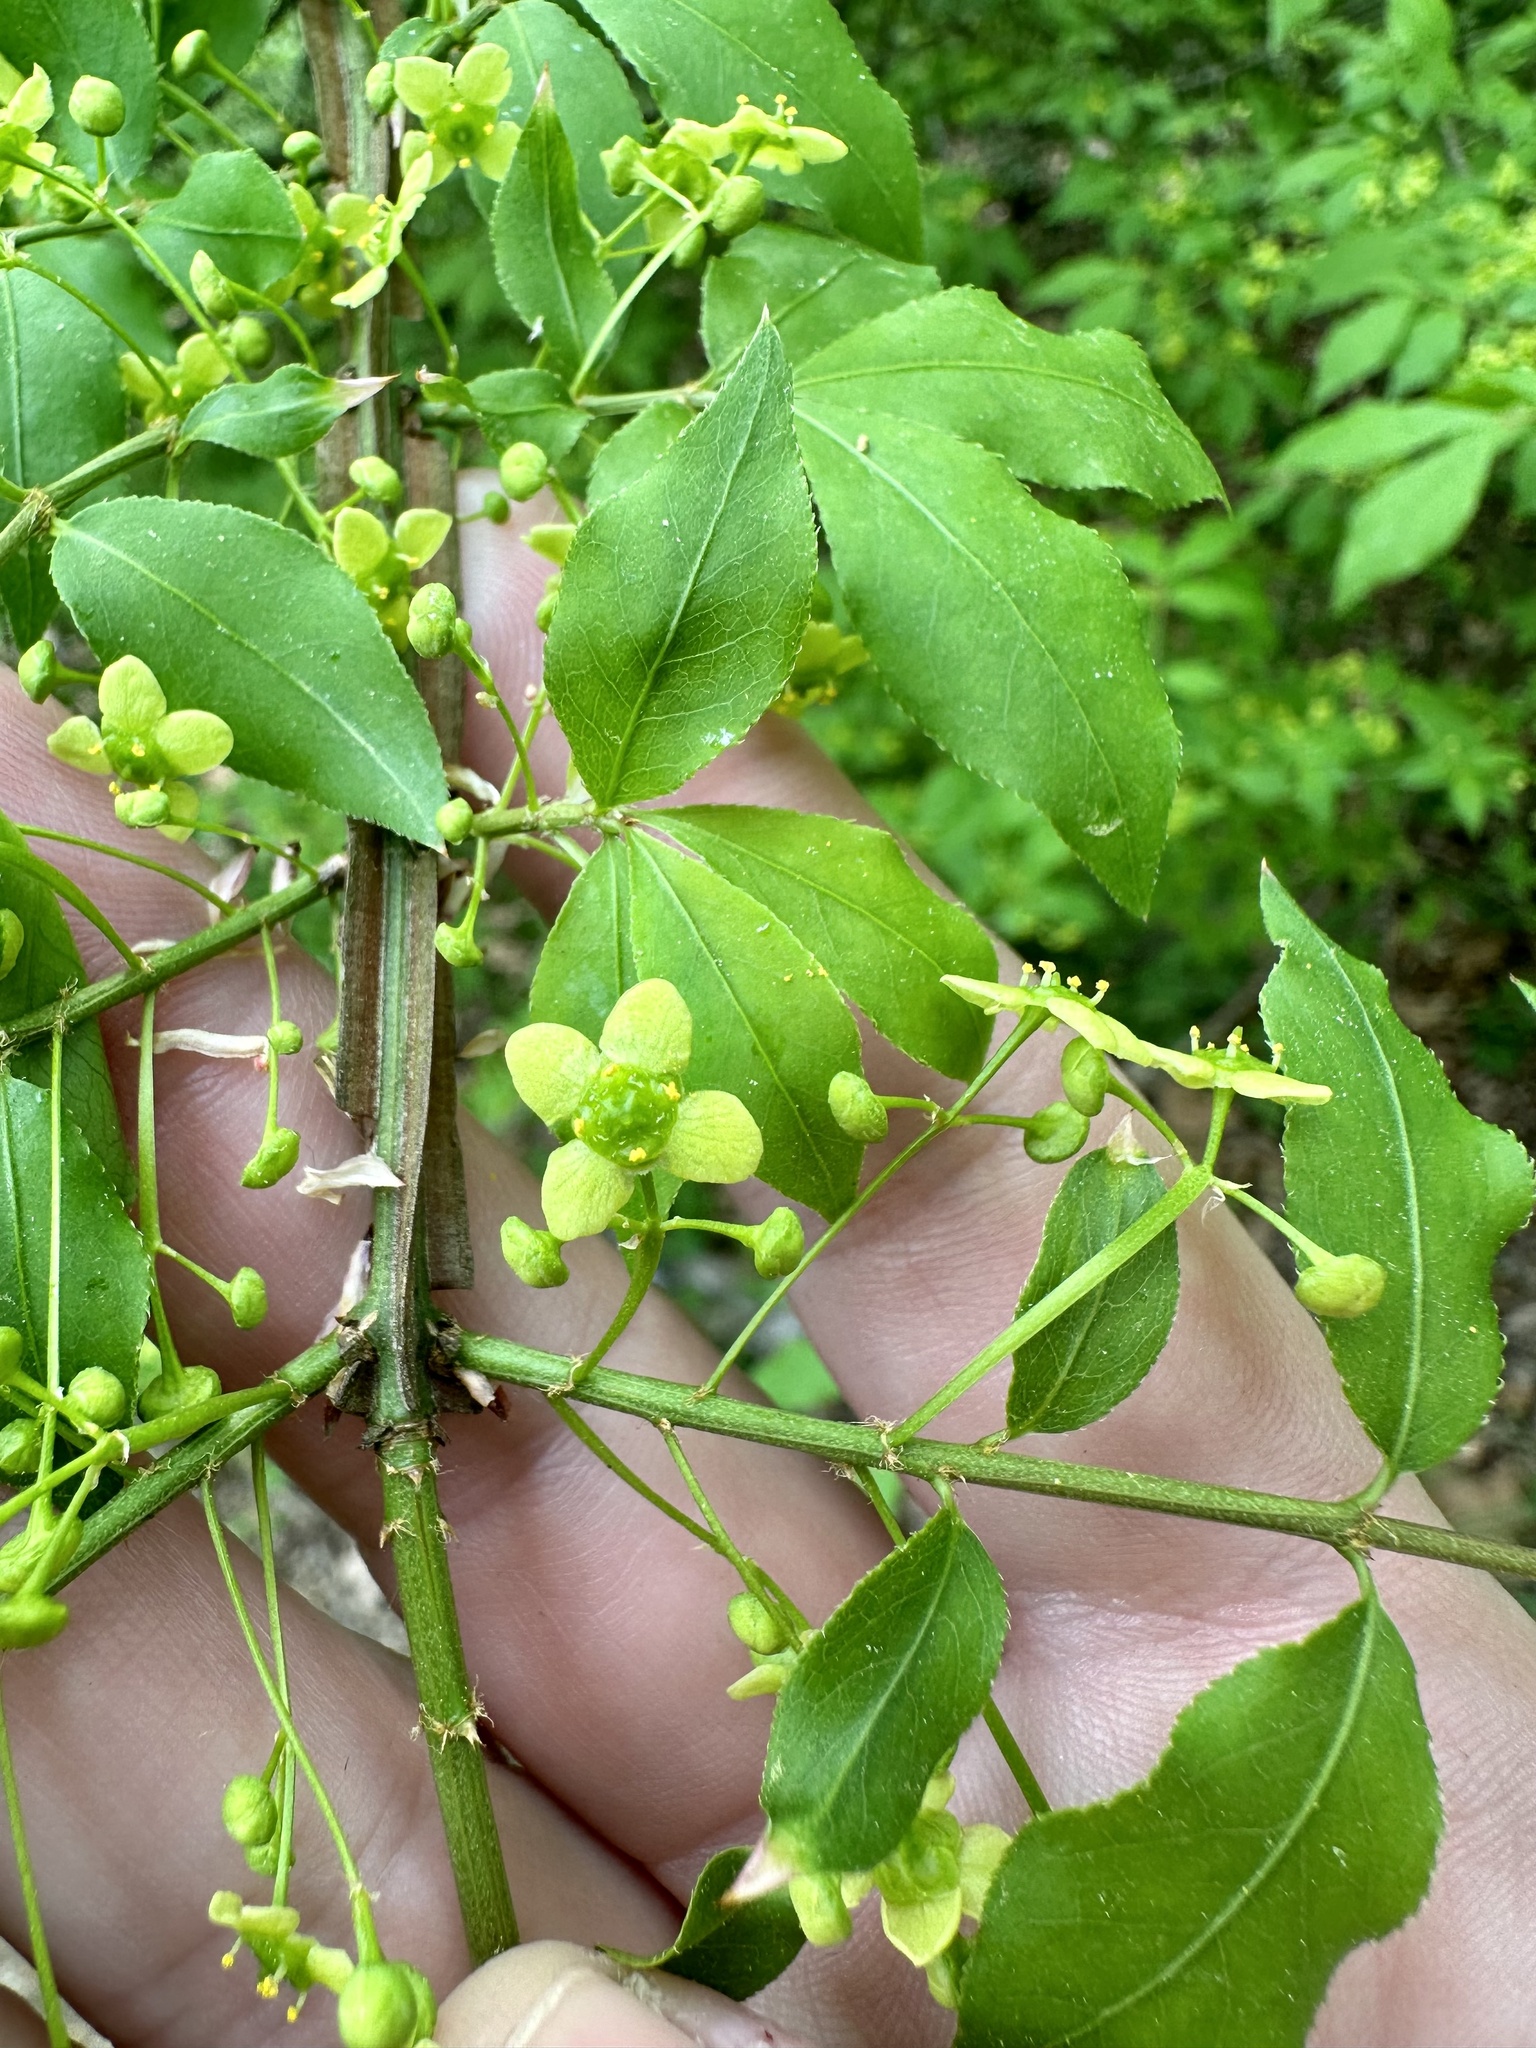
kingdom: Plantae
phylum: Tracheophyta
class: Magnoliopsida
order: Celastrales
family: Celastraceae
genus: Euonymus
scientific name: Euonymus alatus
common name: Winged euonymus
